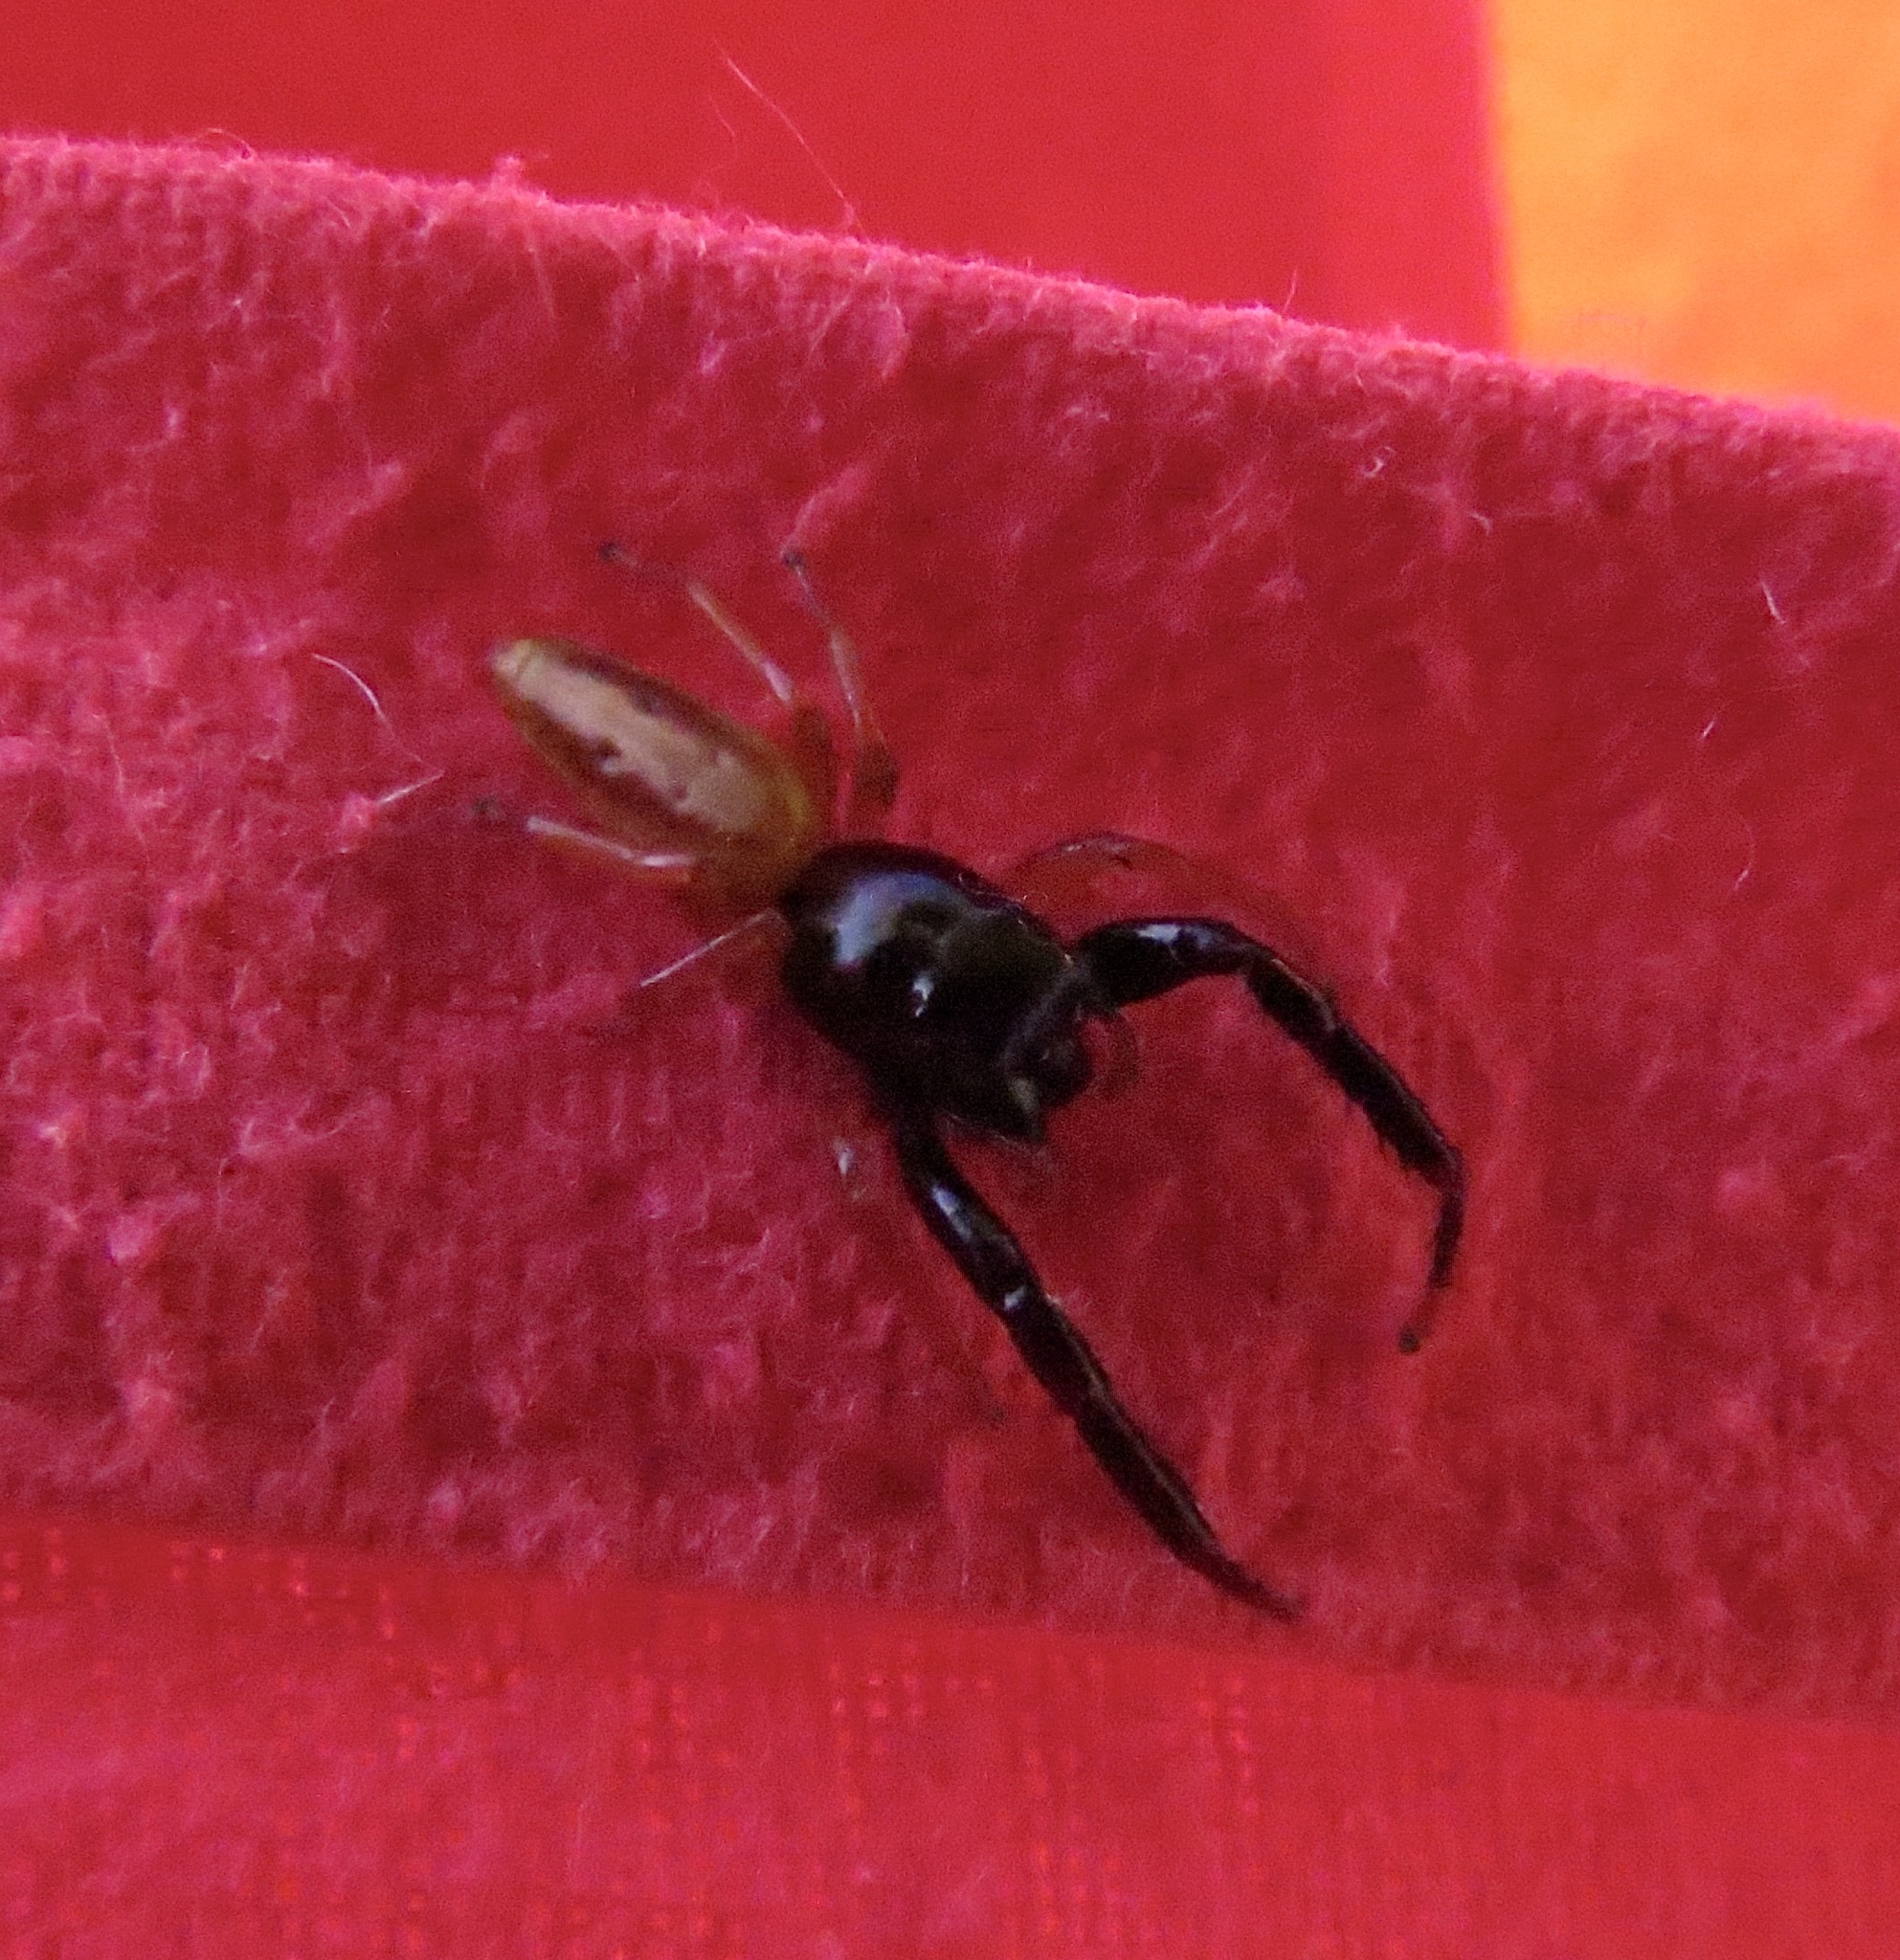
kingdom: Animalia
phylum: Arthropoda
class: Arachnida
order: Araneae
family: Salticidae
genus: Trite
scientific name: Trite planiceps
